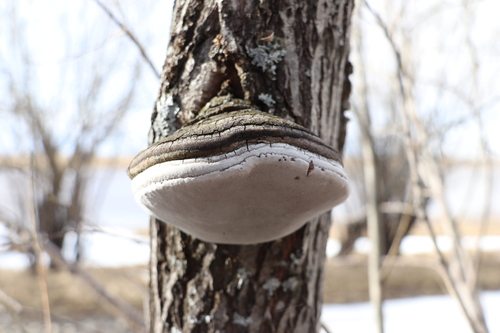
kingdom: Fungi
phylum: Basidiomycota
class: Agaricomycetes
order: Hymenochaetales
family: Hymenochaetaceae
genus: Phellinus
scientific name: Phellinus igniarius
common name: Willow bracket
